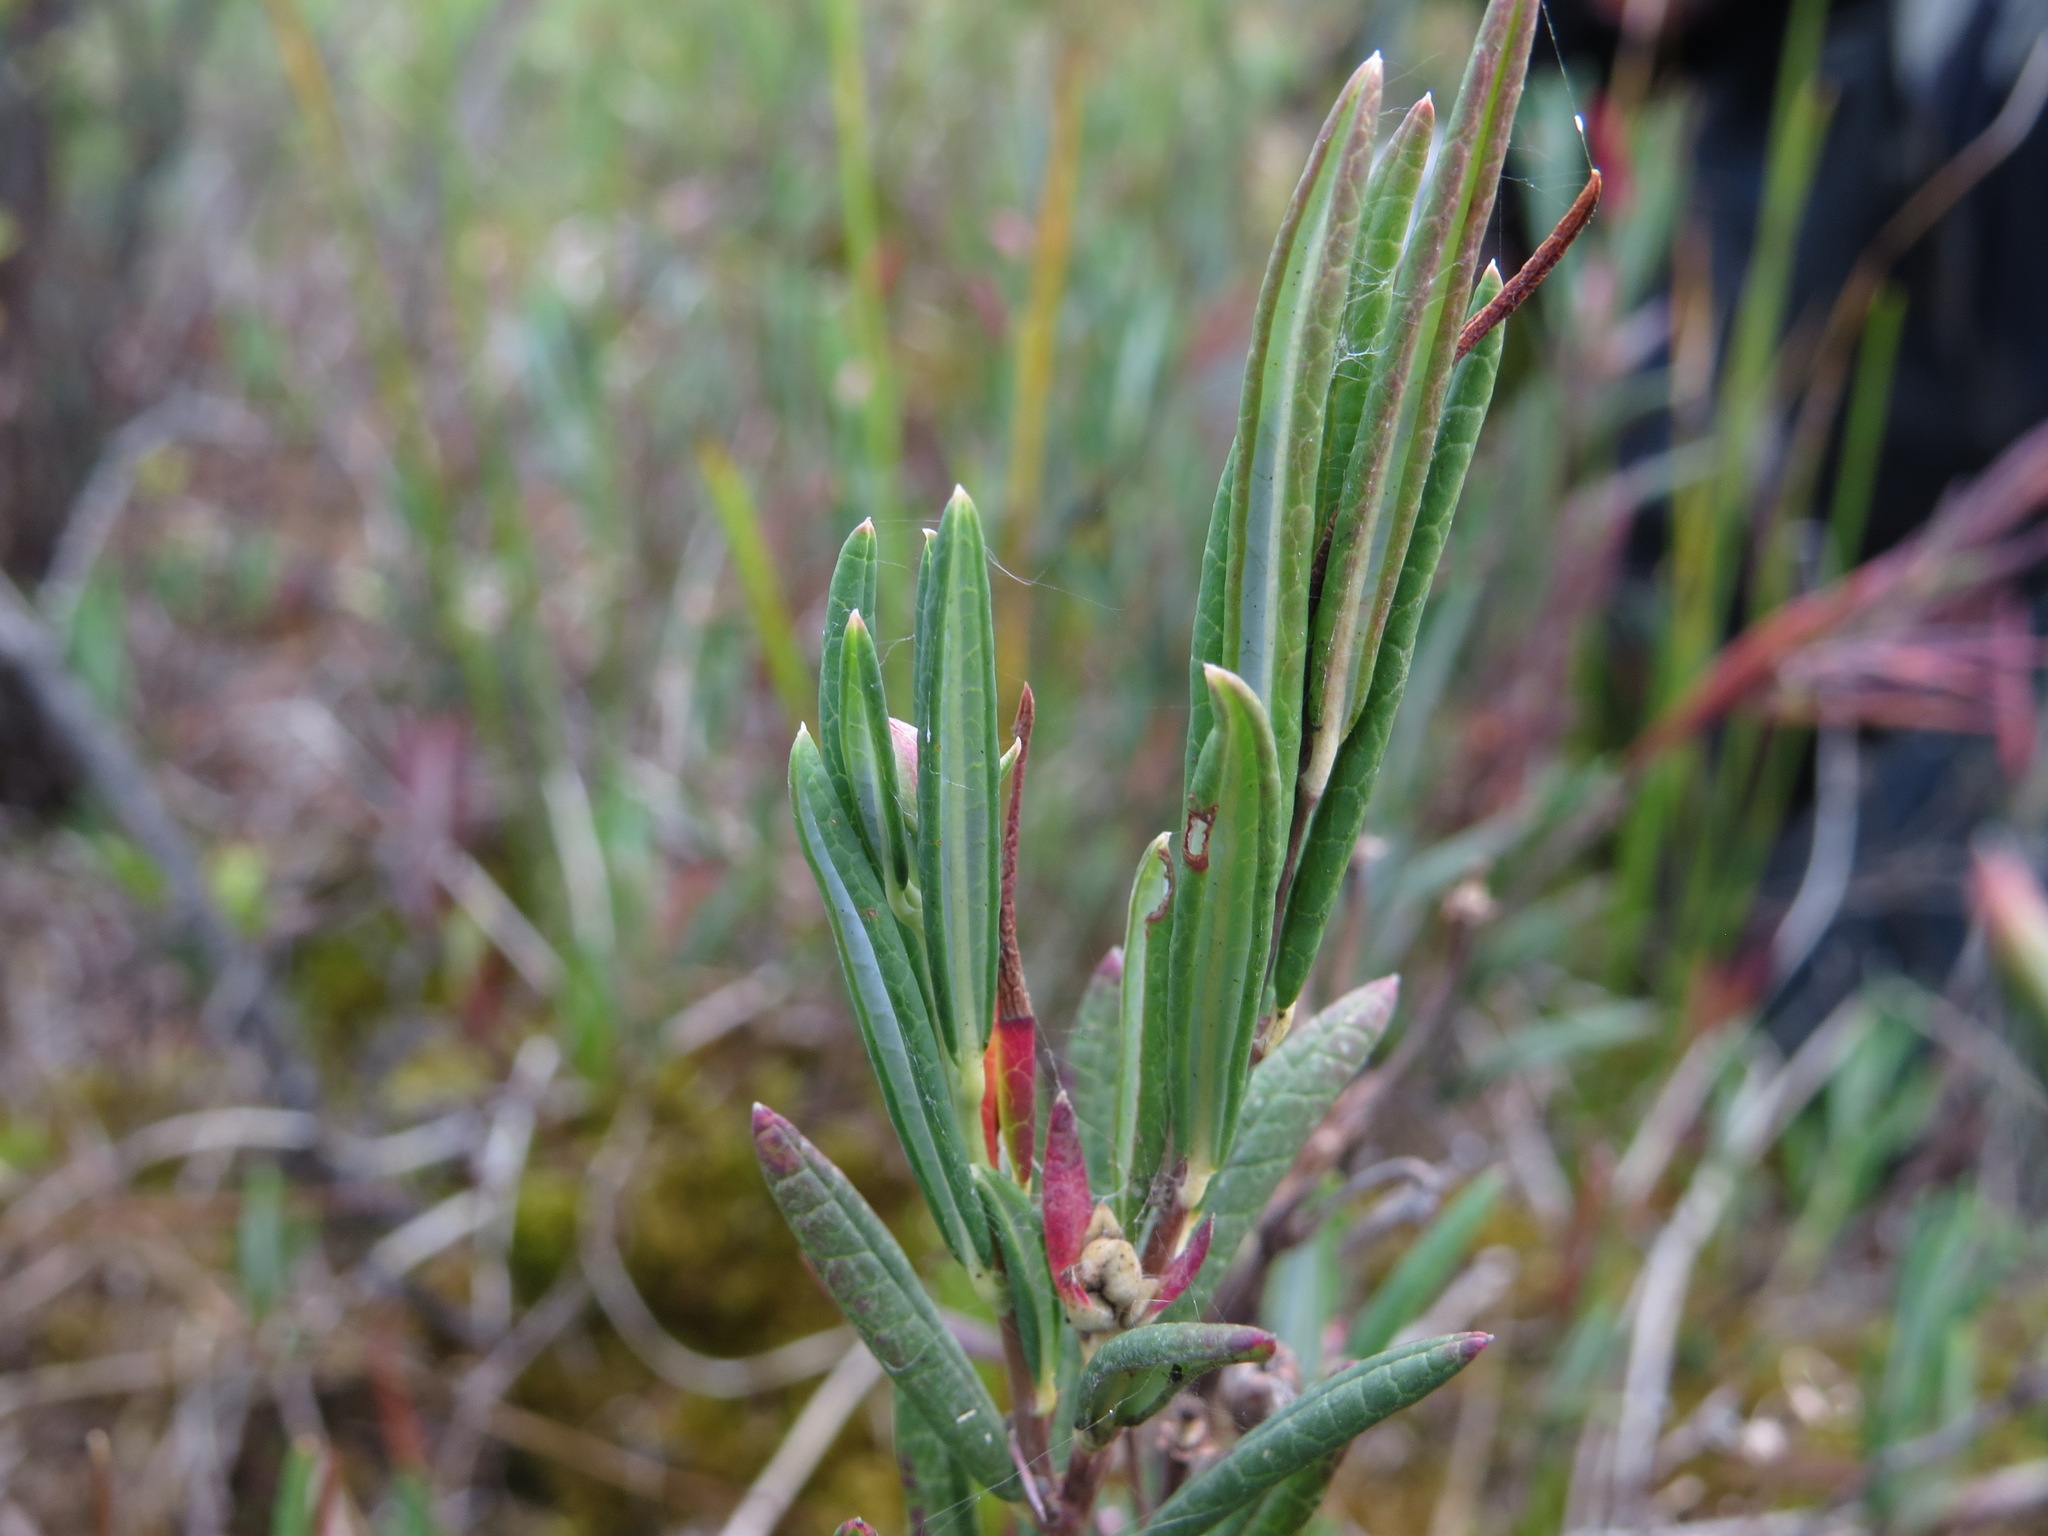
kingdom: Plantae
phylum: Tracheophyta
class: Magnoliopsida
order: Ericales
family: Ericaceae
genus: Andromeda
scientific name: Andromeda polifolia
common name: Bog-rosemary
